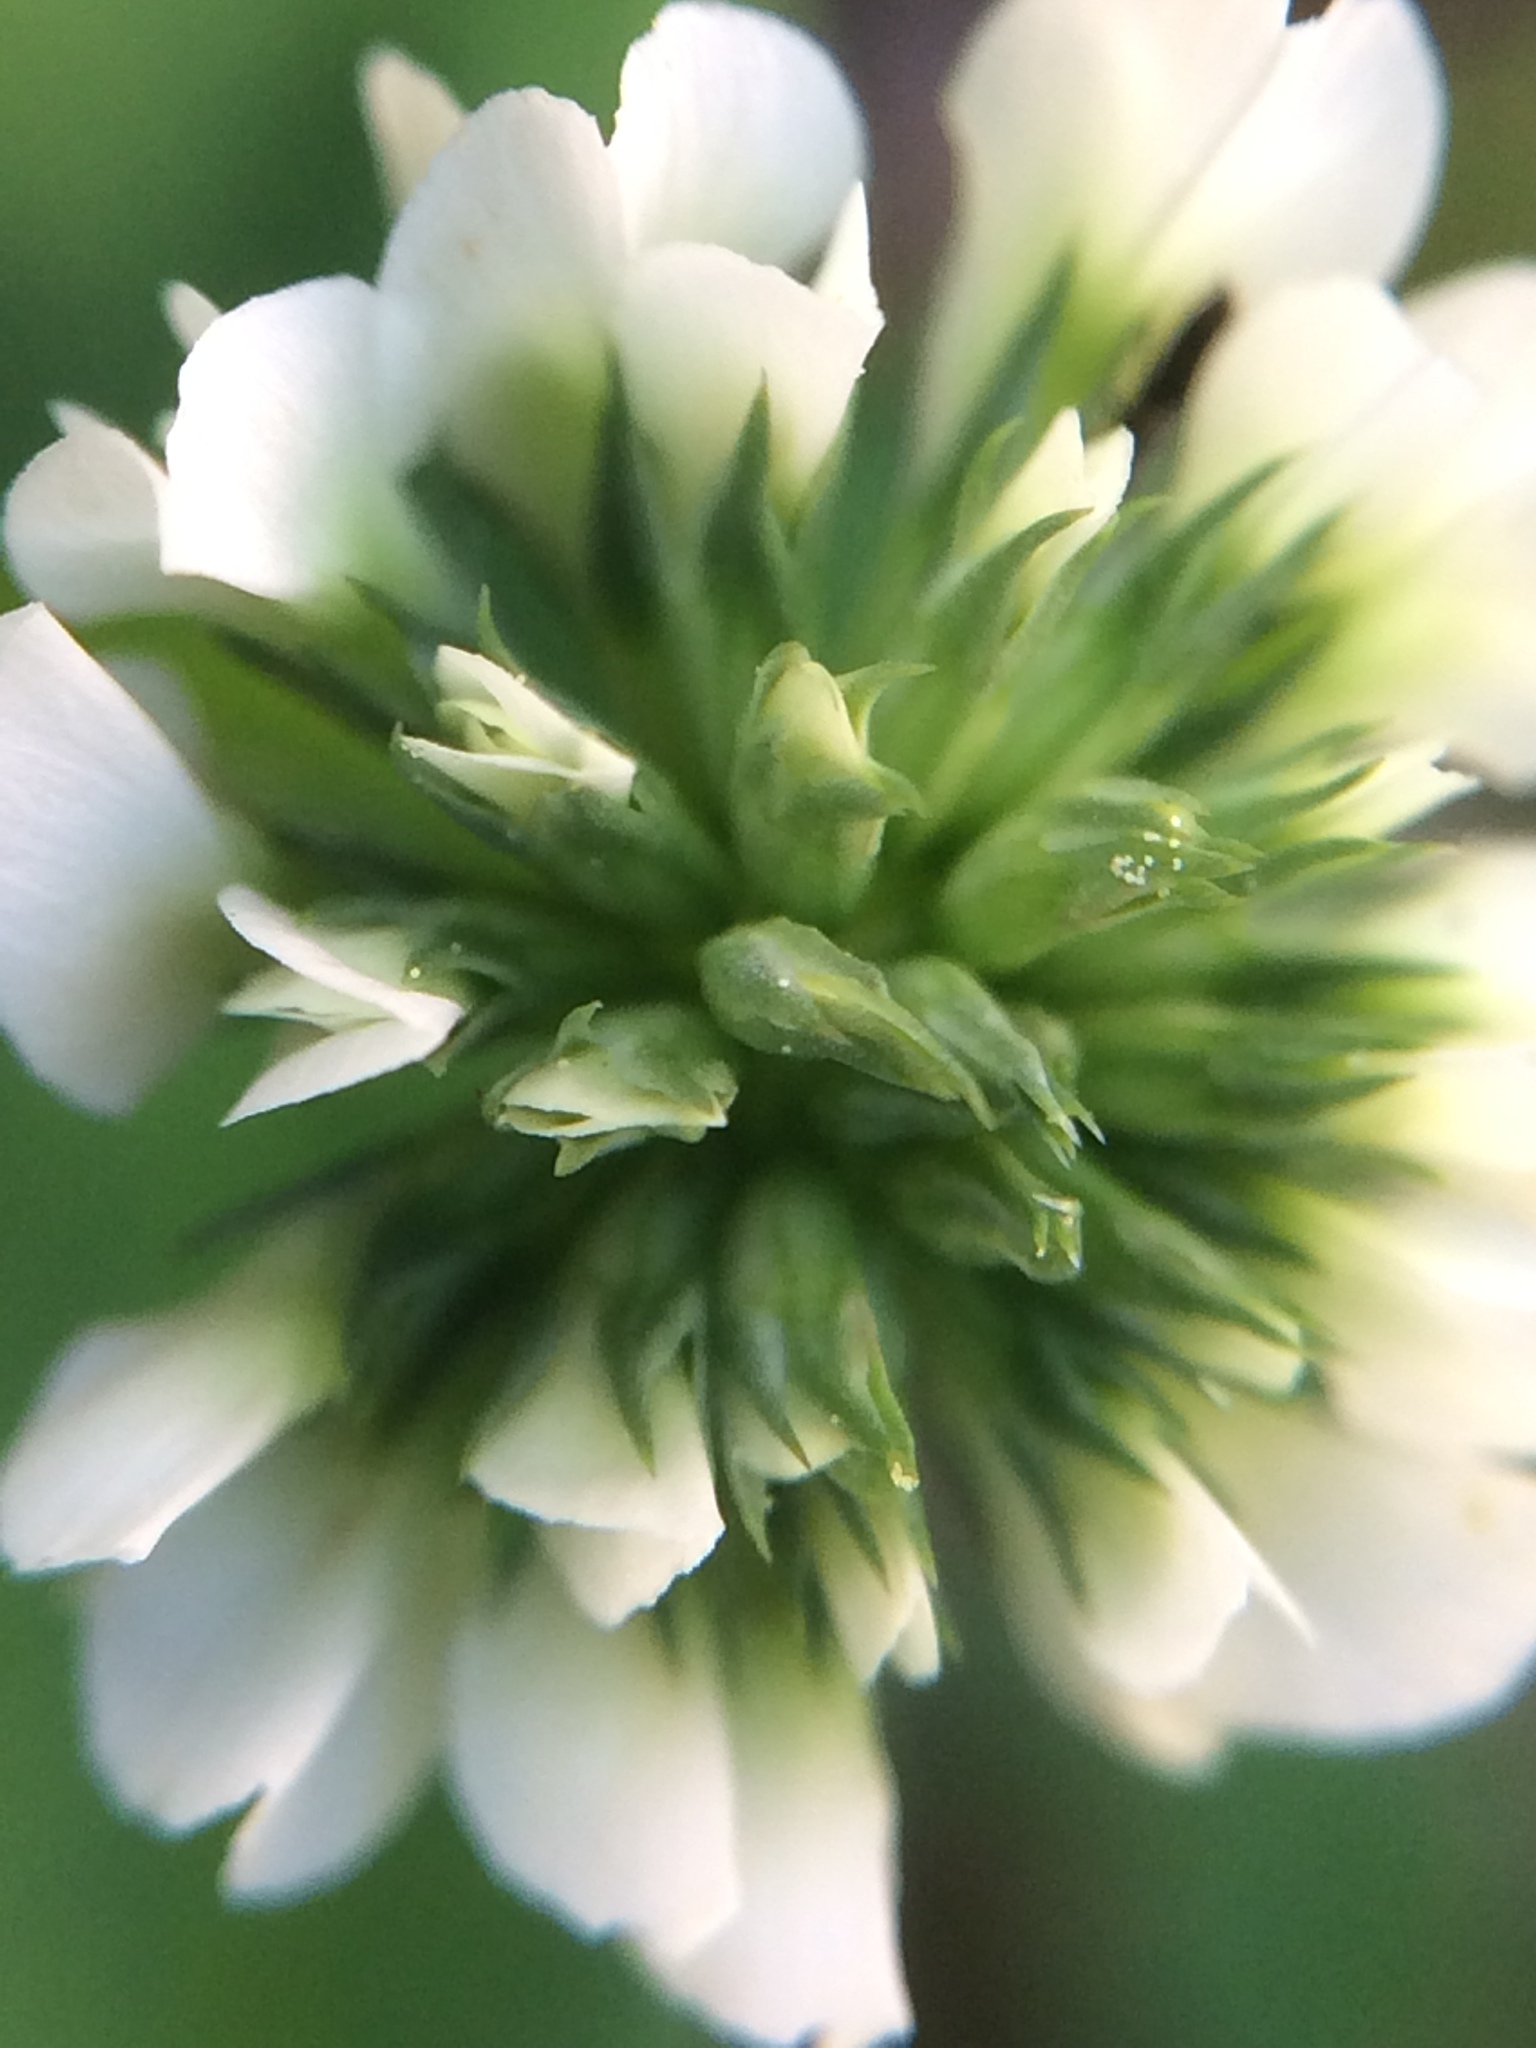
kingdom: Plantae
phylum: Tracheophyta
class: Magnoliopsida
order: Fabales
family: Fabaceae
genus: Trifolium
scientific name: Trifolium repens
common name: White clover
